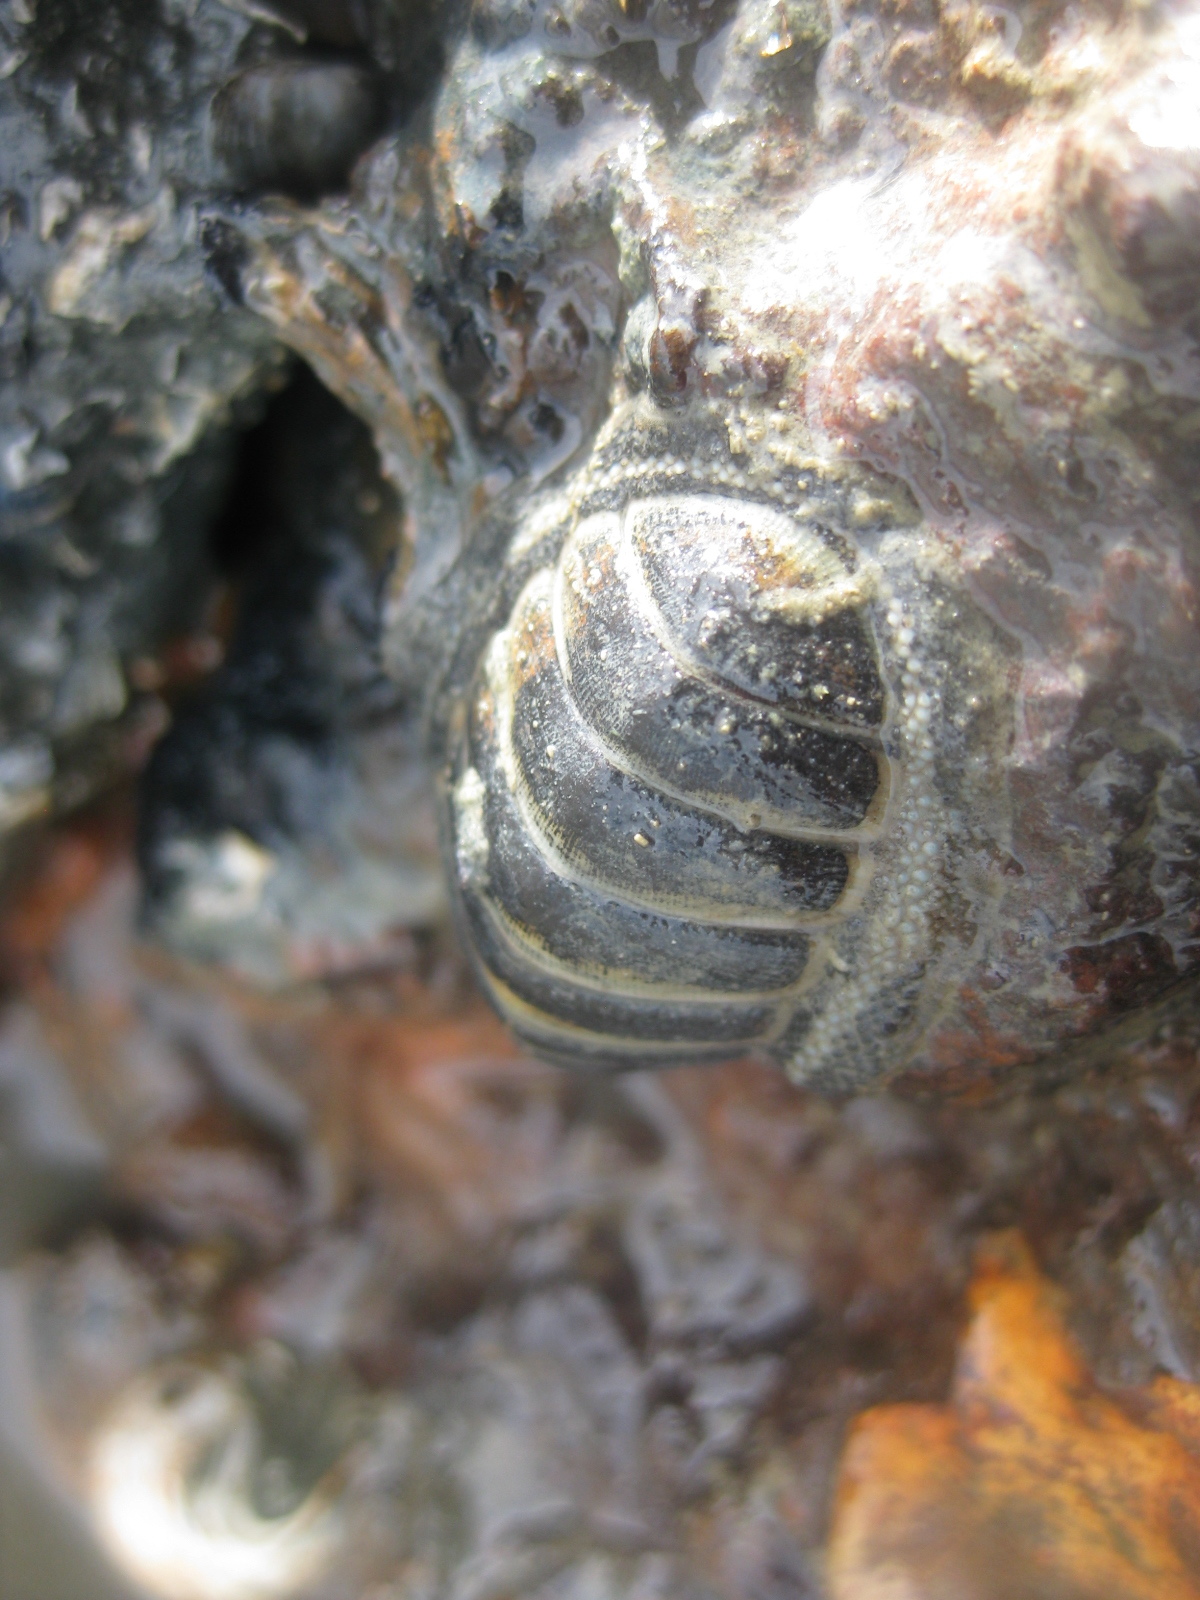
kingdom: Animalia
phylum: Mollusca
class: Polyplacophora
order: Chitonida
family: Chitonidae
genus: Chiton
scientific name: Chiton glaucus
